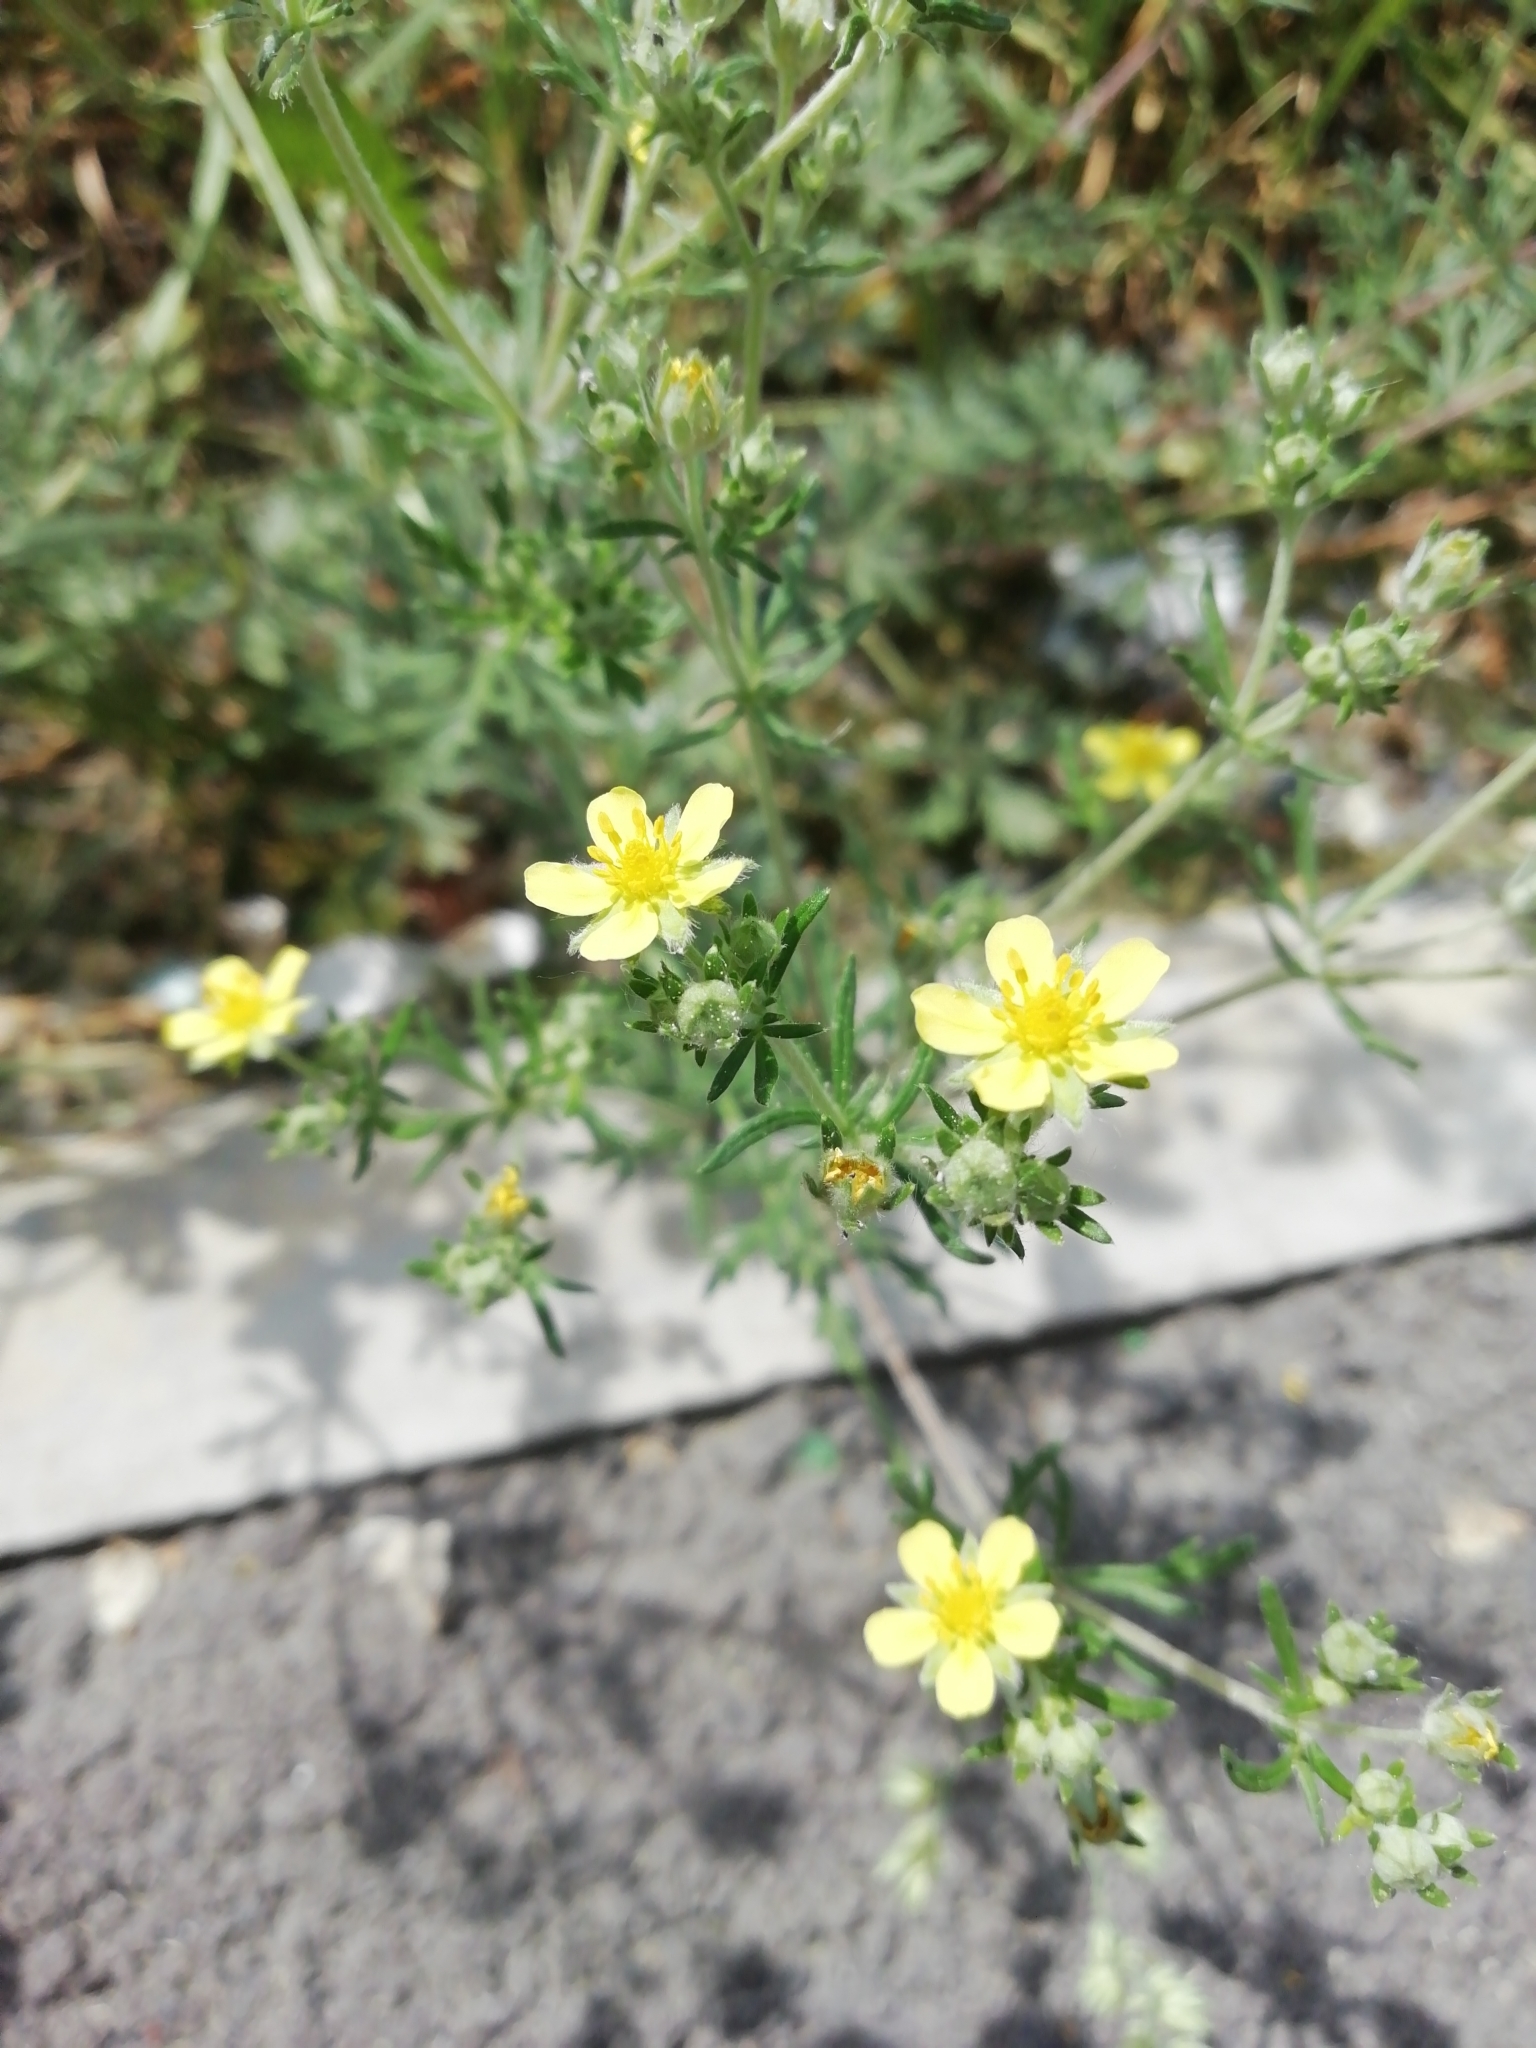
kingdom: Plantae
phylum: Tracheophyta
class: Magnoliopsida
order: Rosales
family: Rosaceae
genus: Potentilla
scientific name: Potentilla argentea
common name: Hoary cinquefoil
